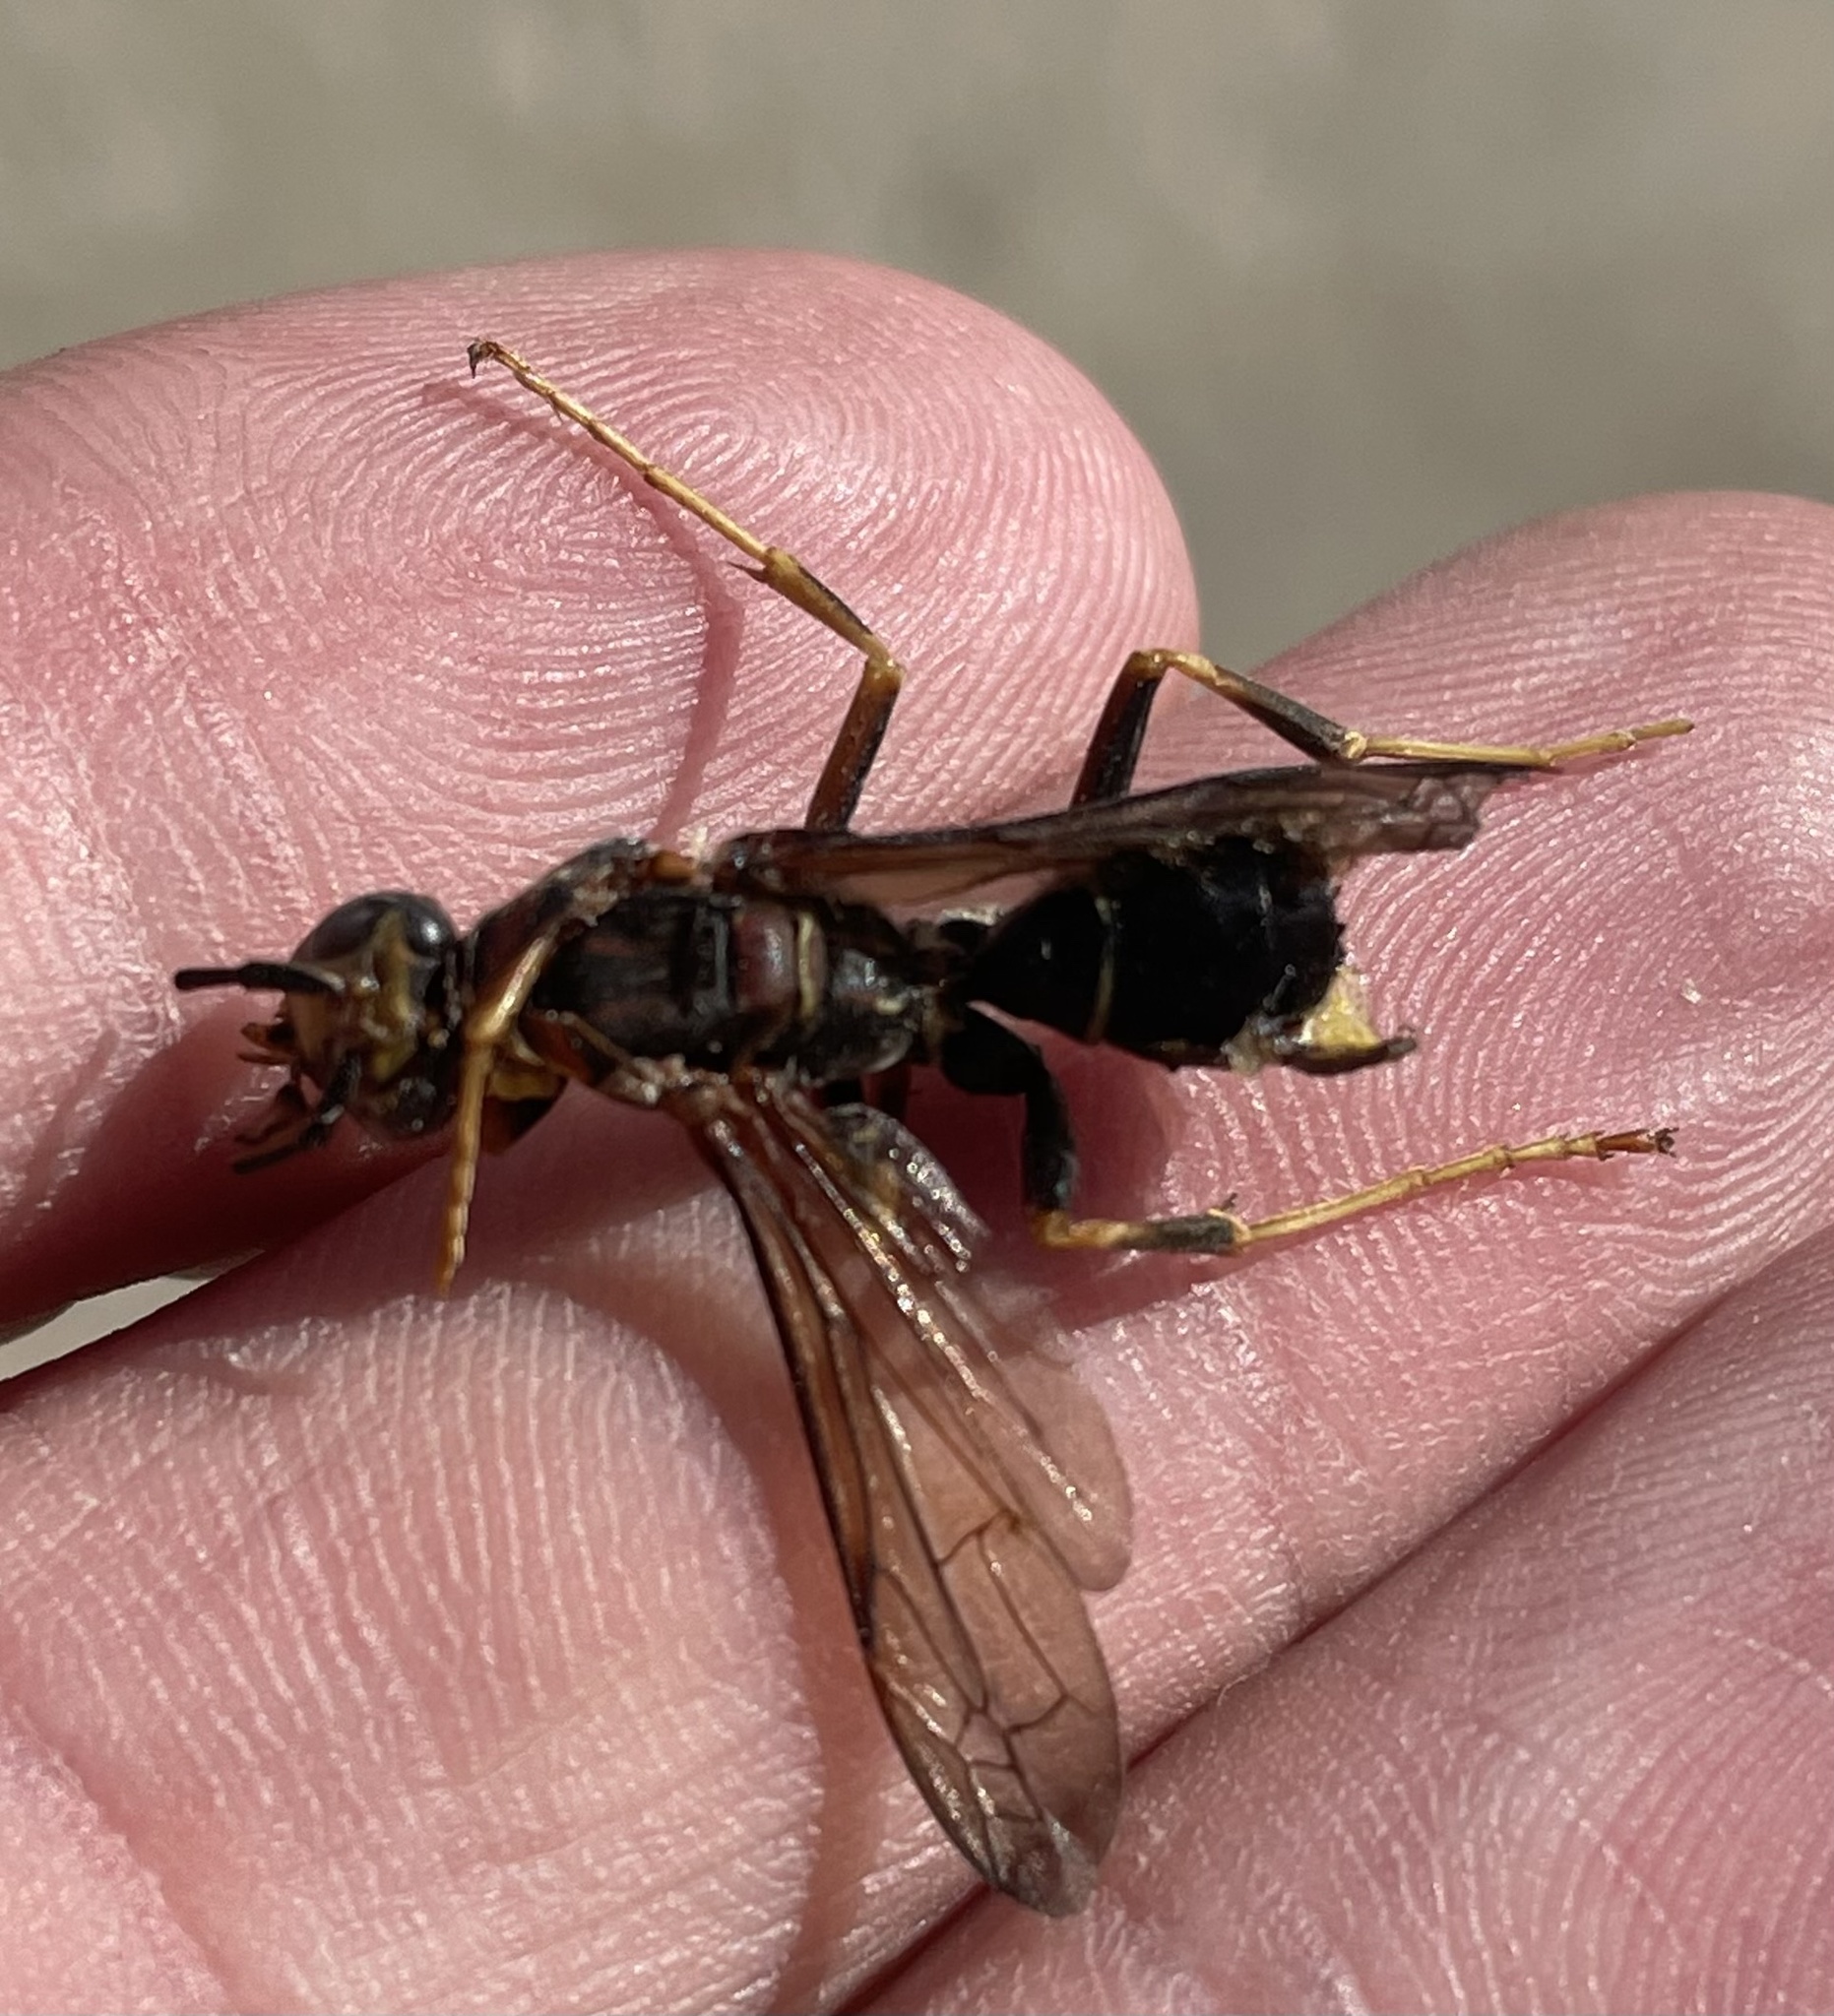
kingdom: Animalia
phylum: Arthropoda
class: Insecta
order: Hymenoptera
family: Vespidae
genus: Fuscopolistes
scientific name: Fuscopolistes
